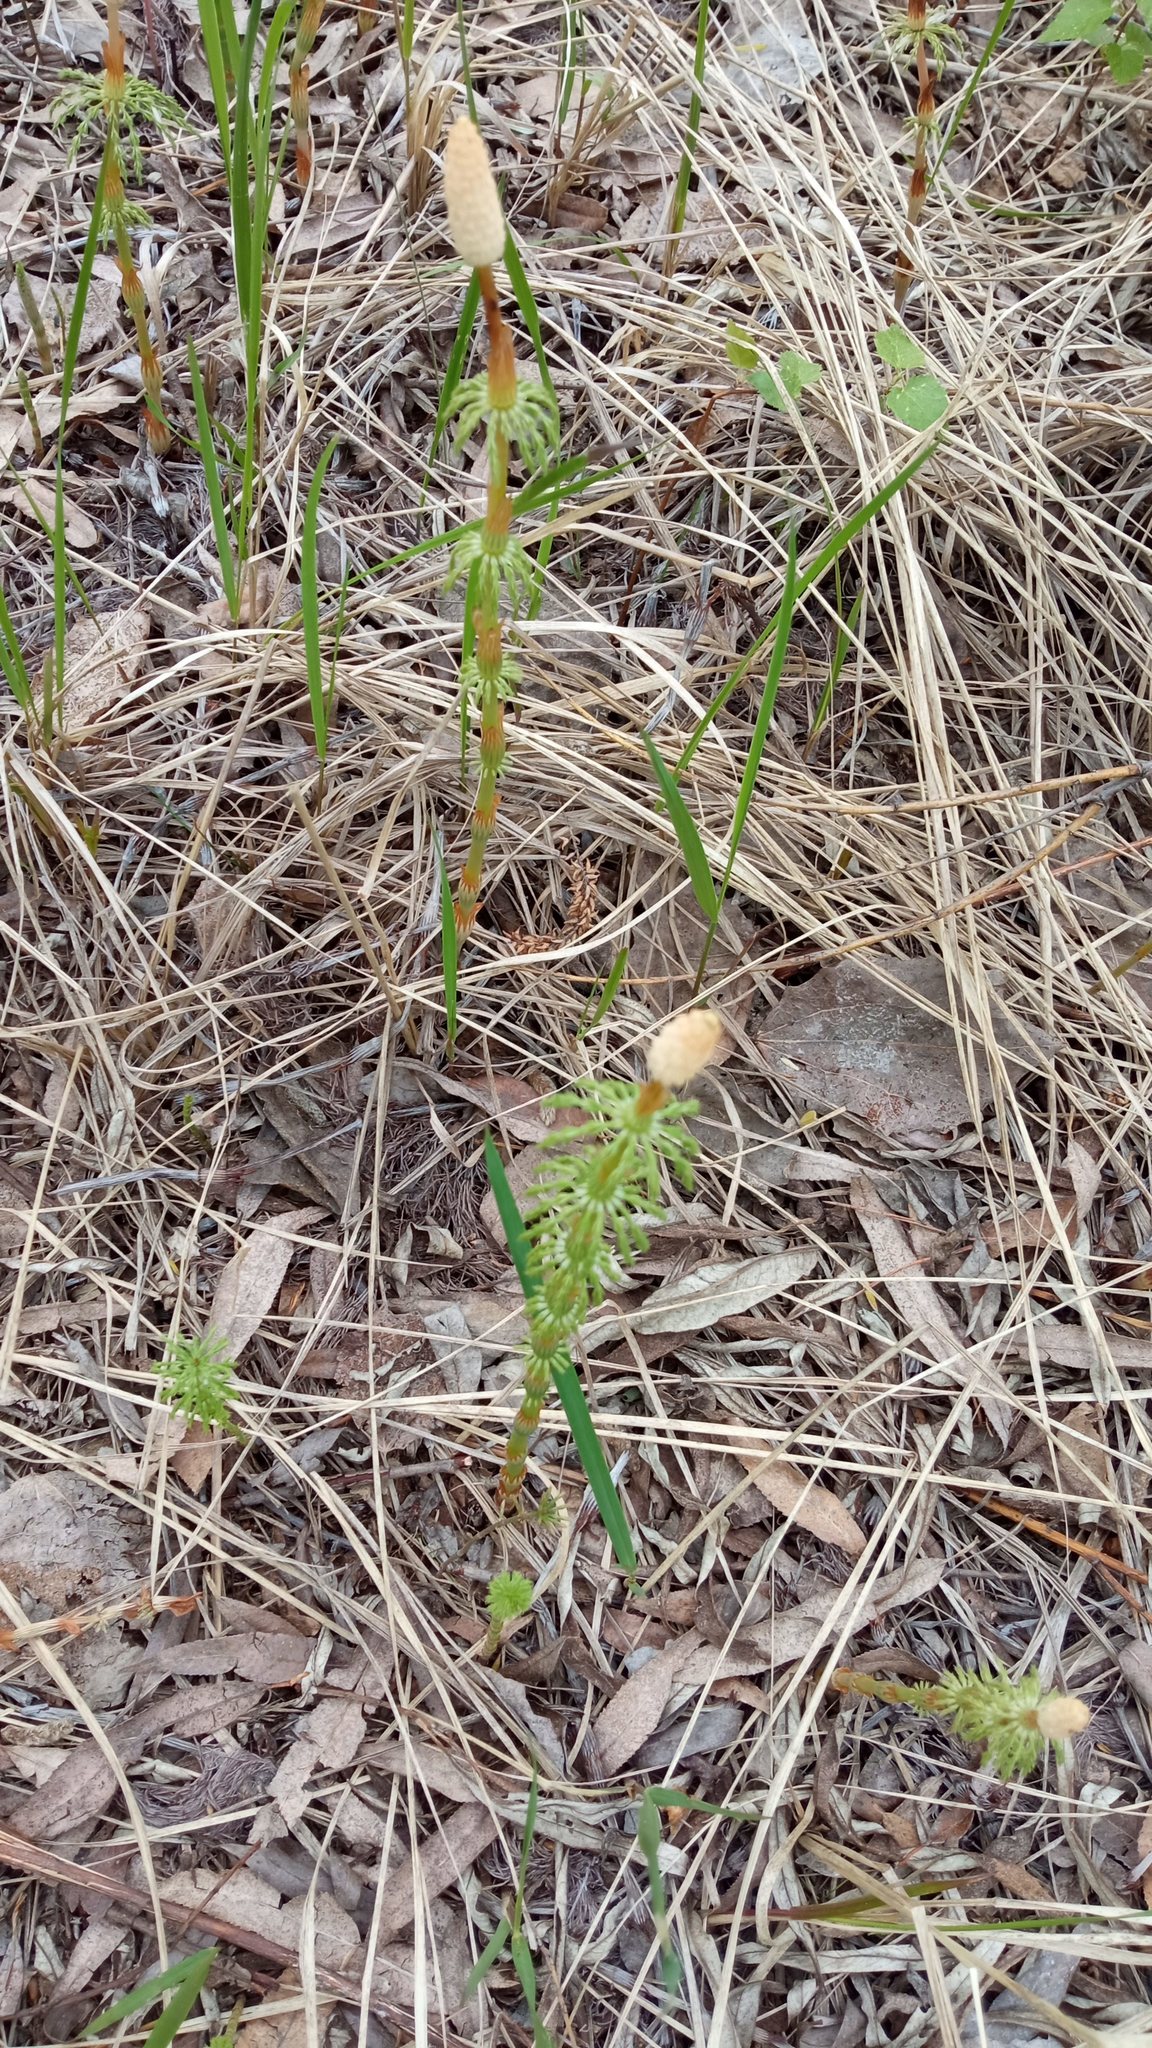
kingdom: Plantae
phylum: Tracheophyta
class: Polypodiopsida
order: Equisetales
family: Equisetaceae
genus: Equisetum
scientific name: Equisetum sylvaticum
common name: Wood horsetail
